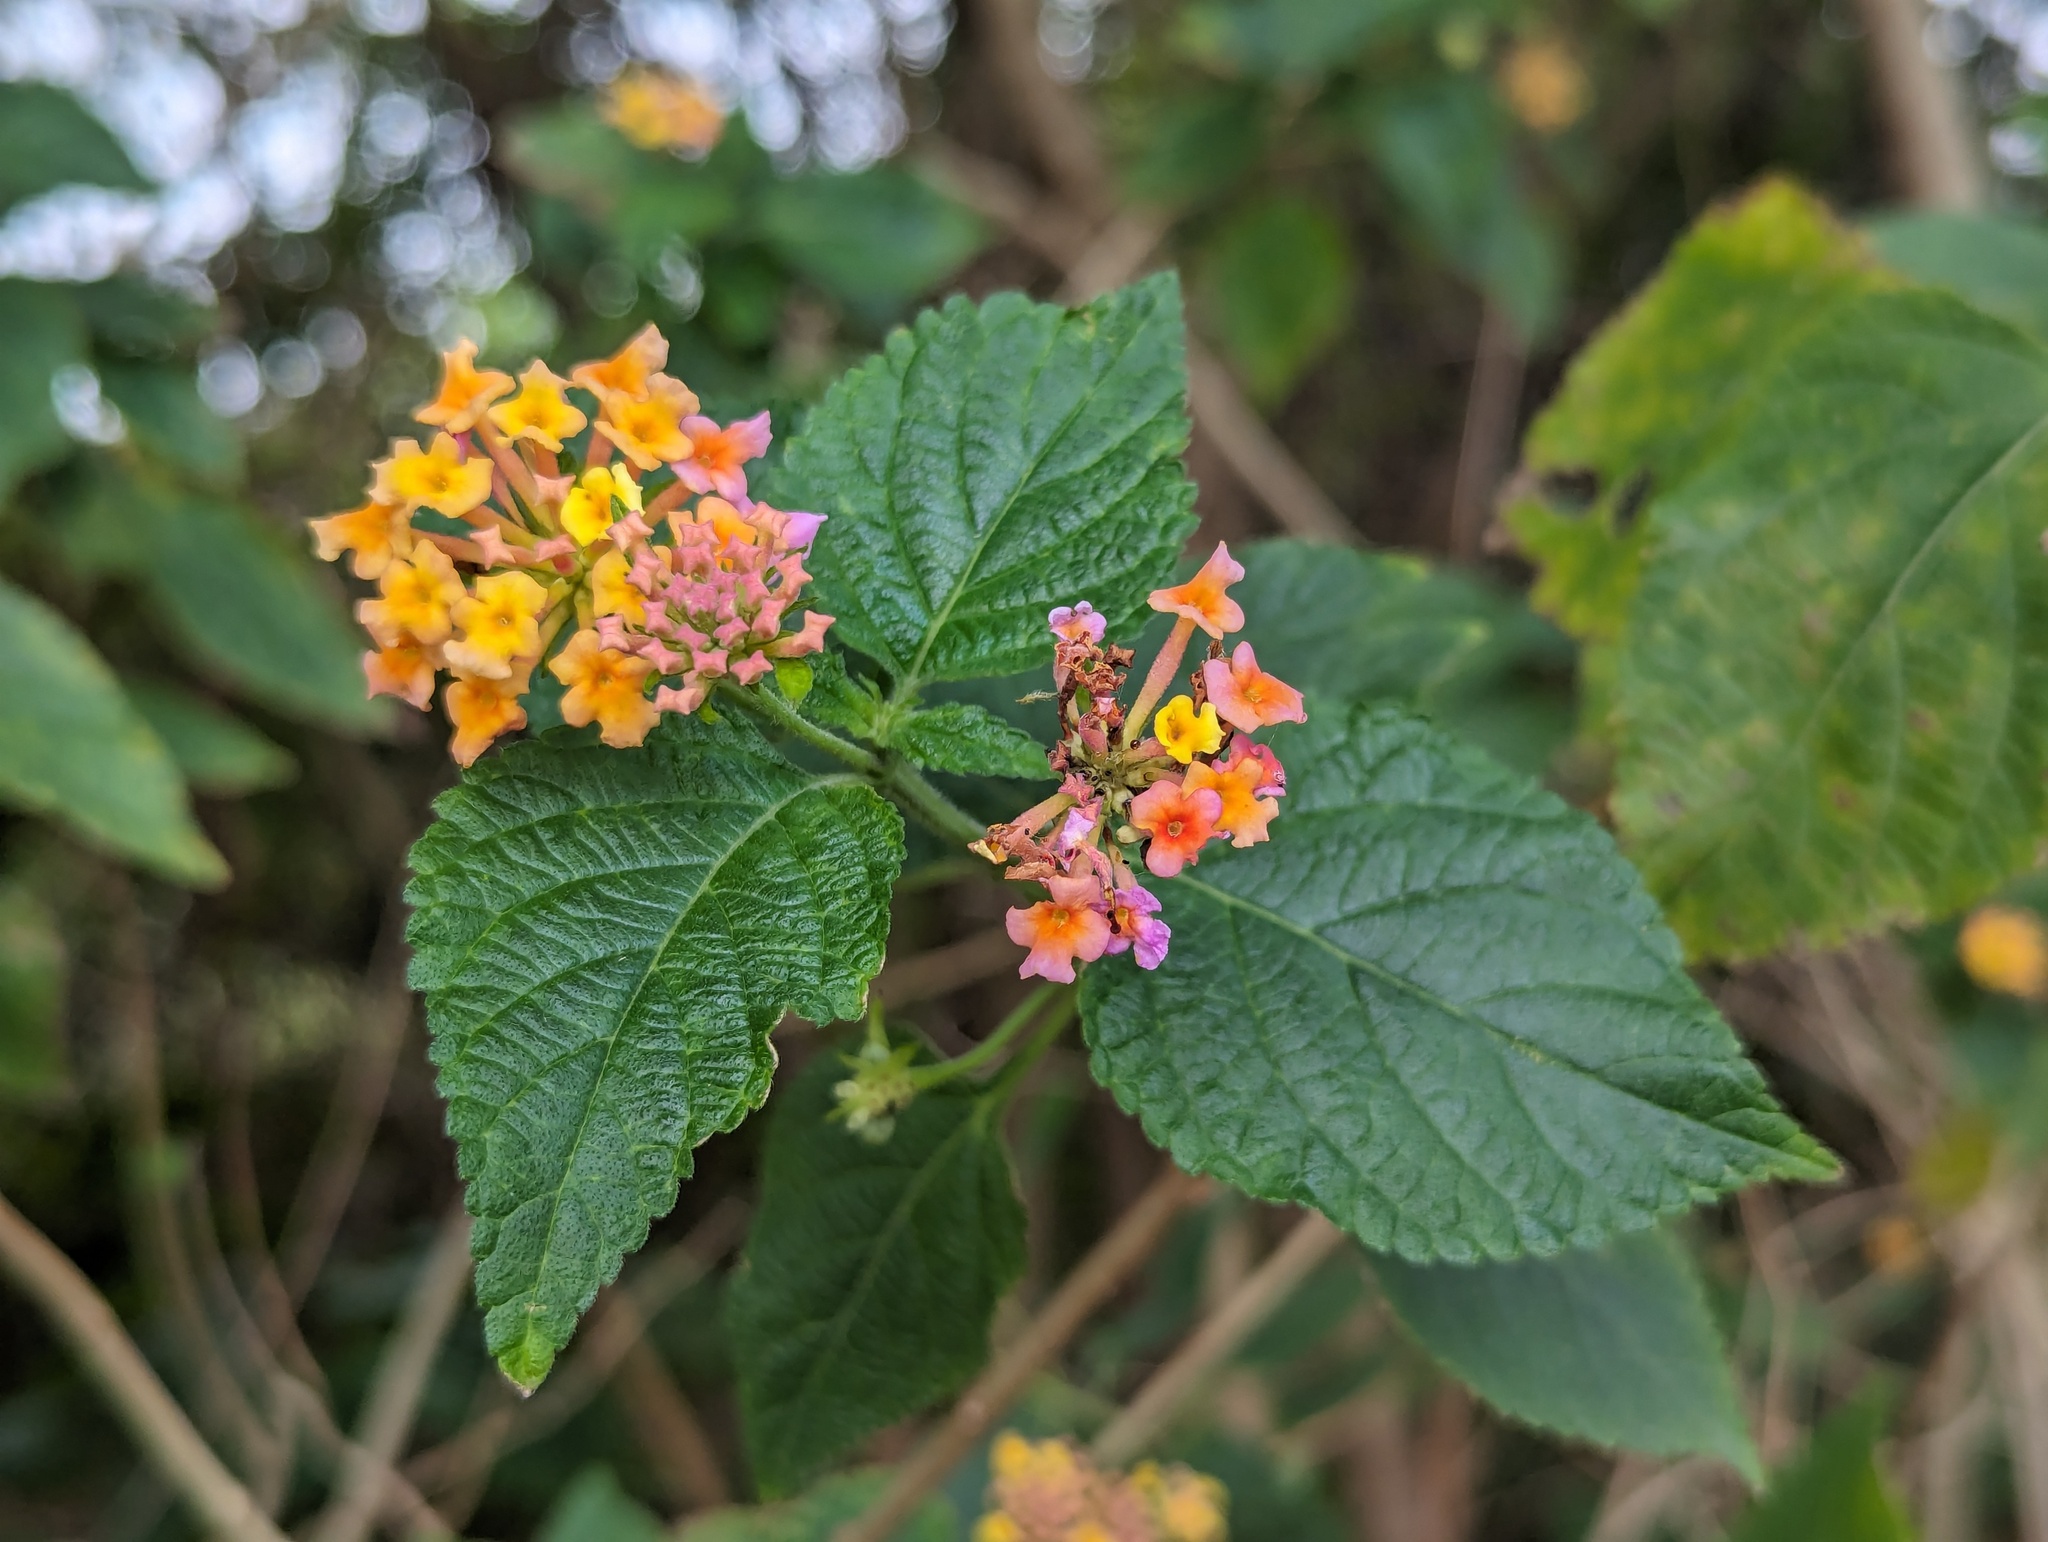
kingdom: Plantae
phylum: Tracheophyta
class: Magnoliopsida
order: Lamiales
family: Verbenaceae
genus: Lantana
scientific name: Lantana camara
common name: Lantana
